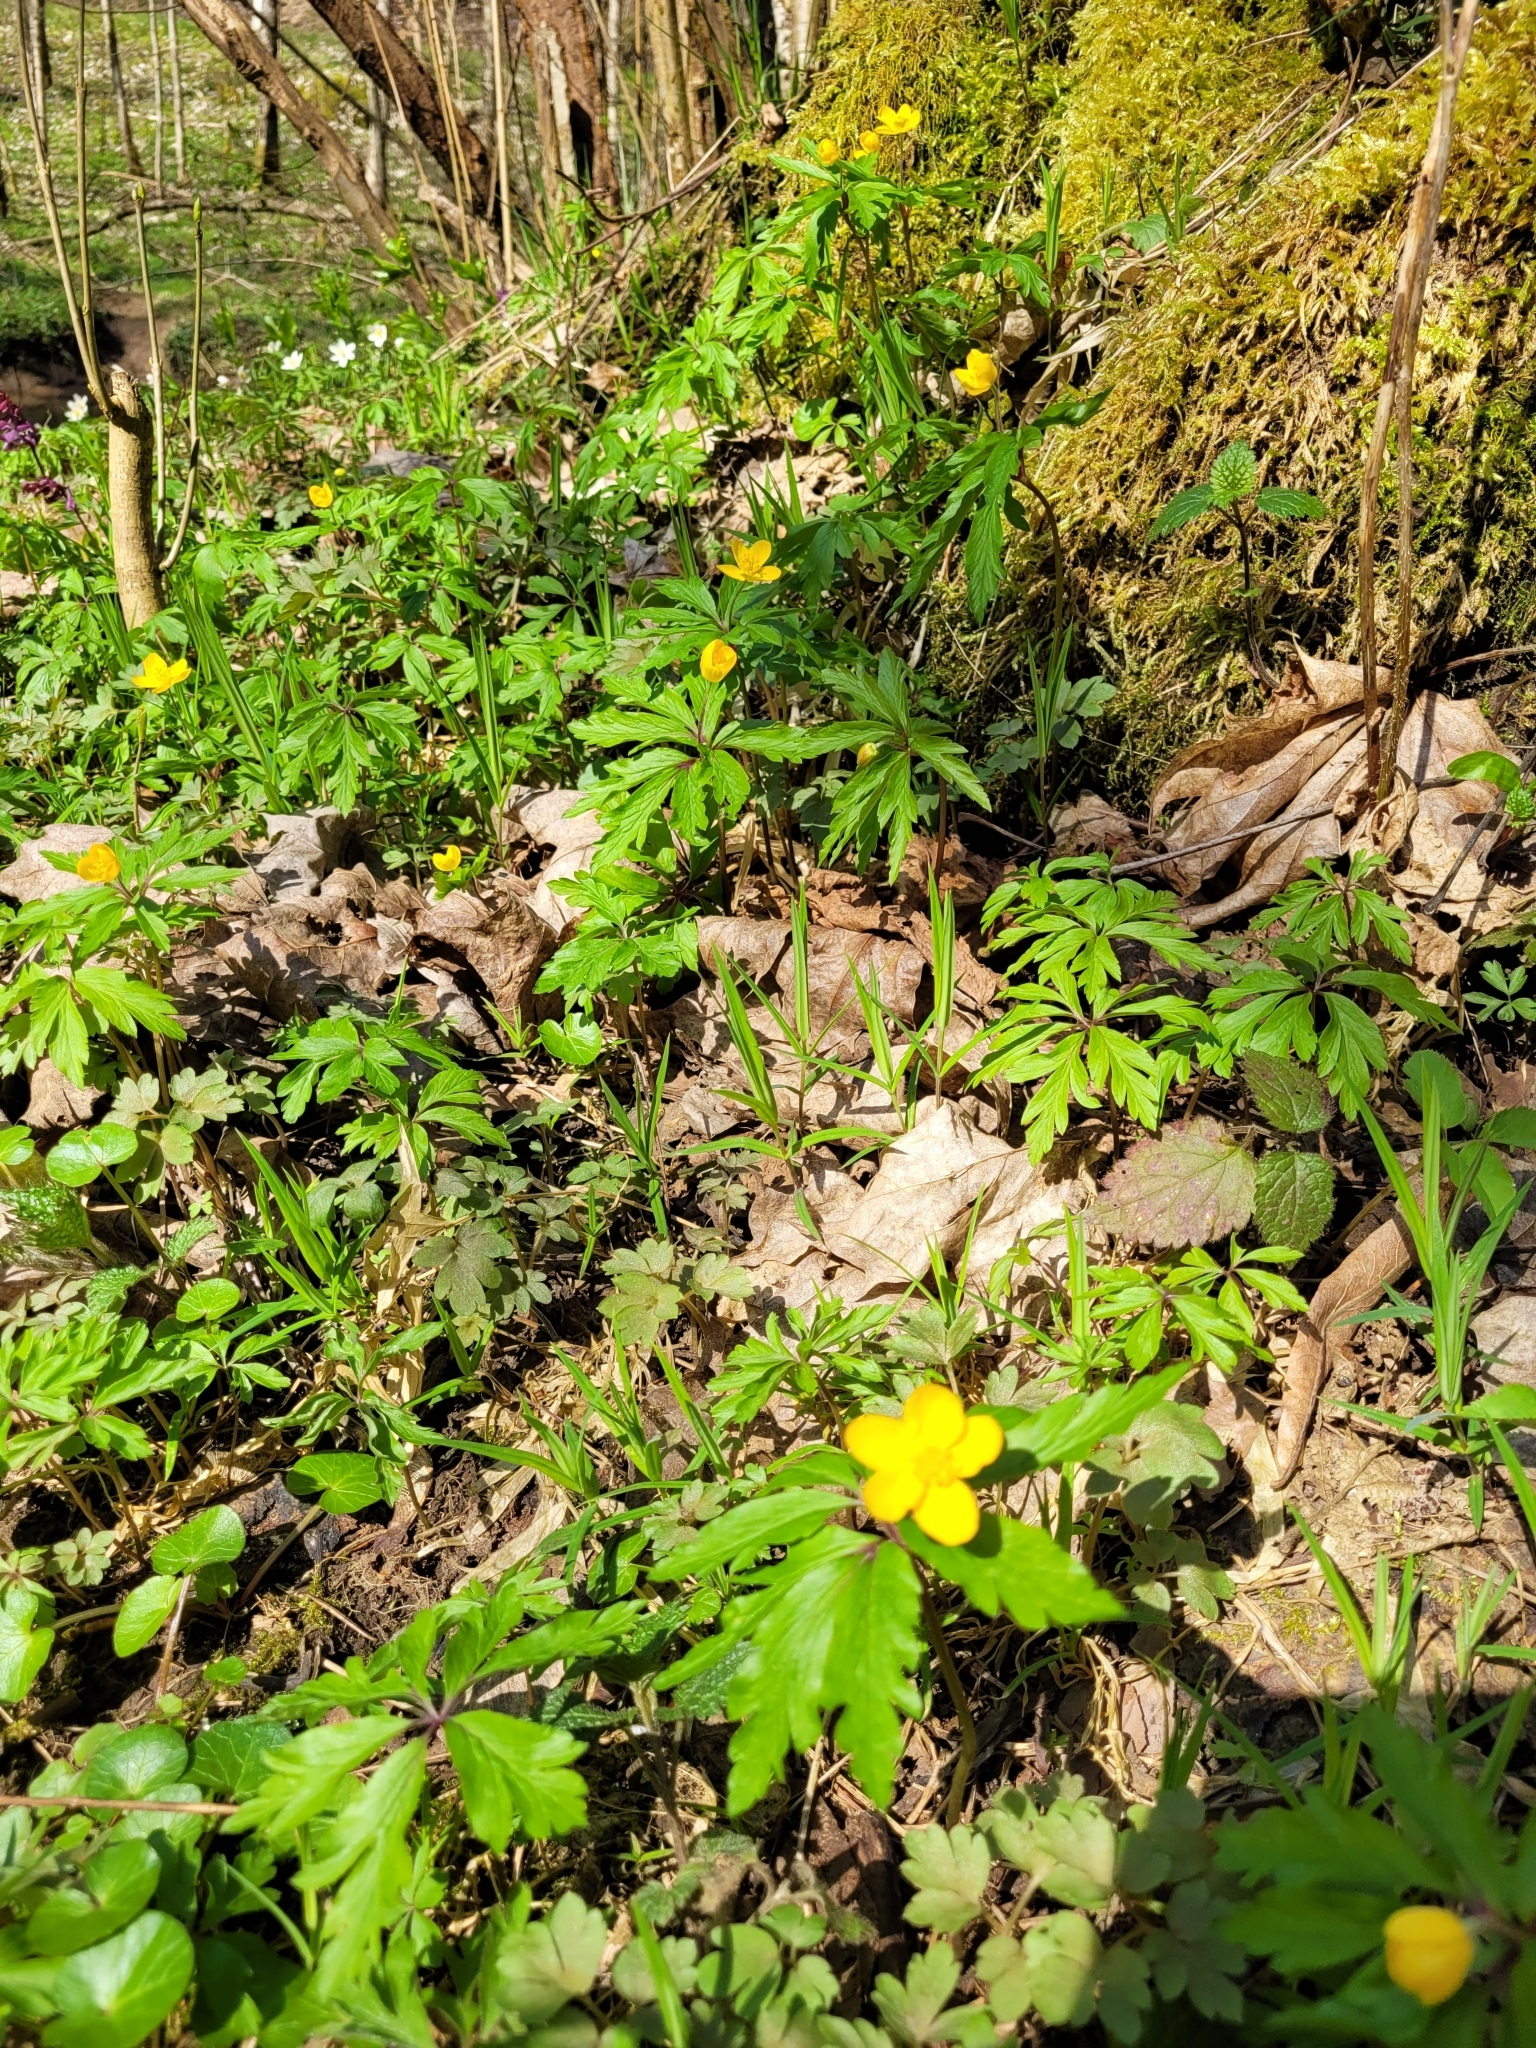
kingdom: Plantae
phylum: Tracheophyta
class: Magnoliopsida
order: Ranunculales
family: Ranunculaceae
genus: Anemone
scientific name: Anemone ranunculoides
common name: Yellow anemone
